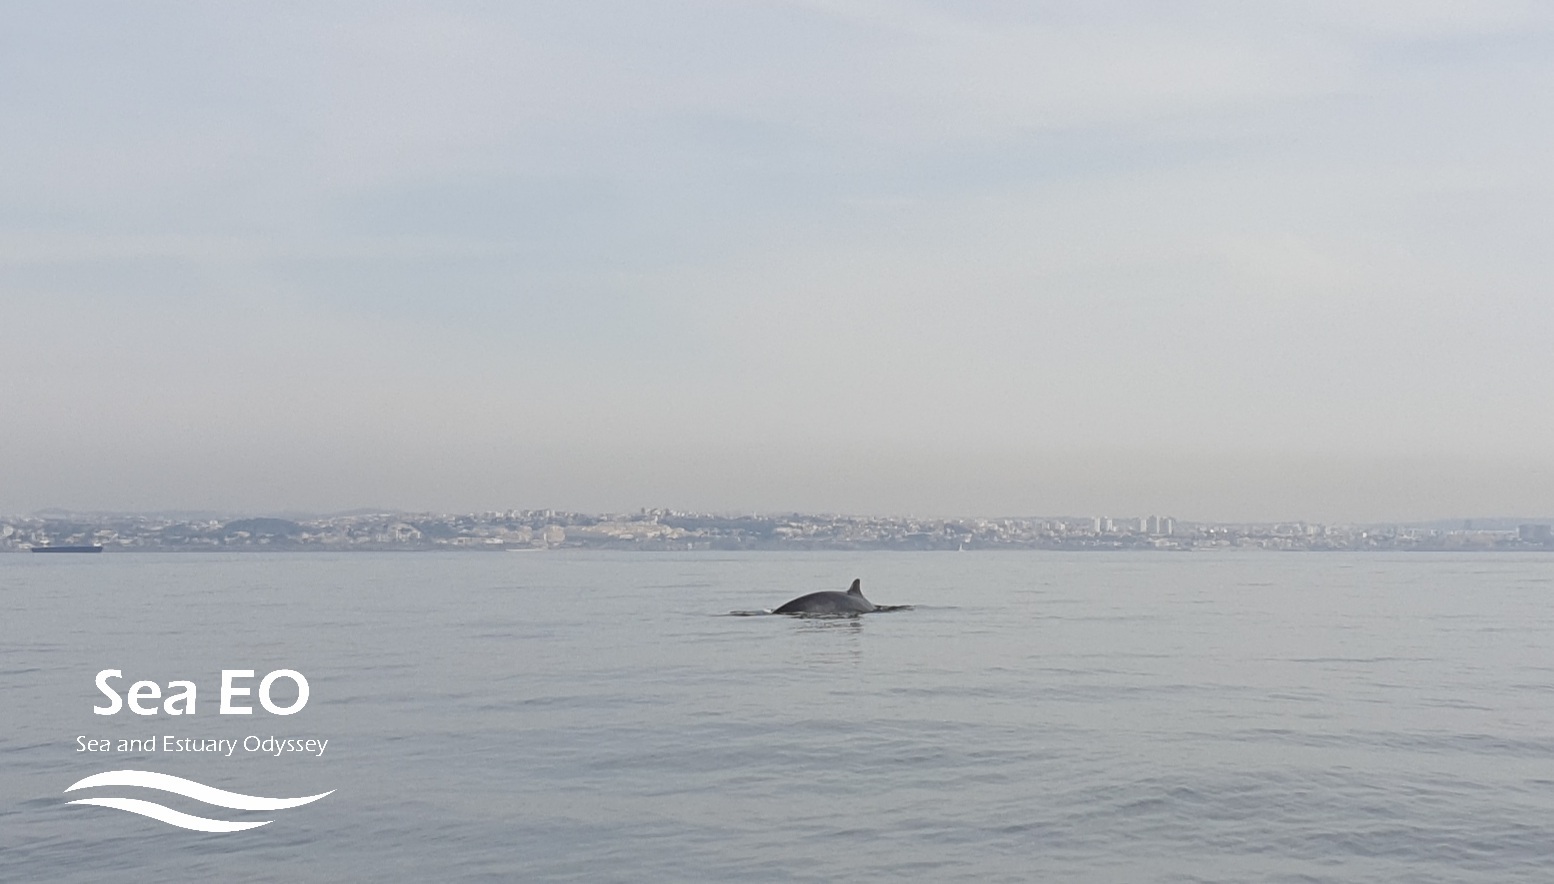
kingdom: Animalia
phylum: Chordata
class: Mammalia
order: Cetacea
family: Balaenopteridae
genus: Balaenoptera
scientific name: Balaenoptera acutorostrata
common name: Common minke whale
